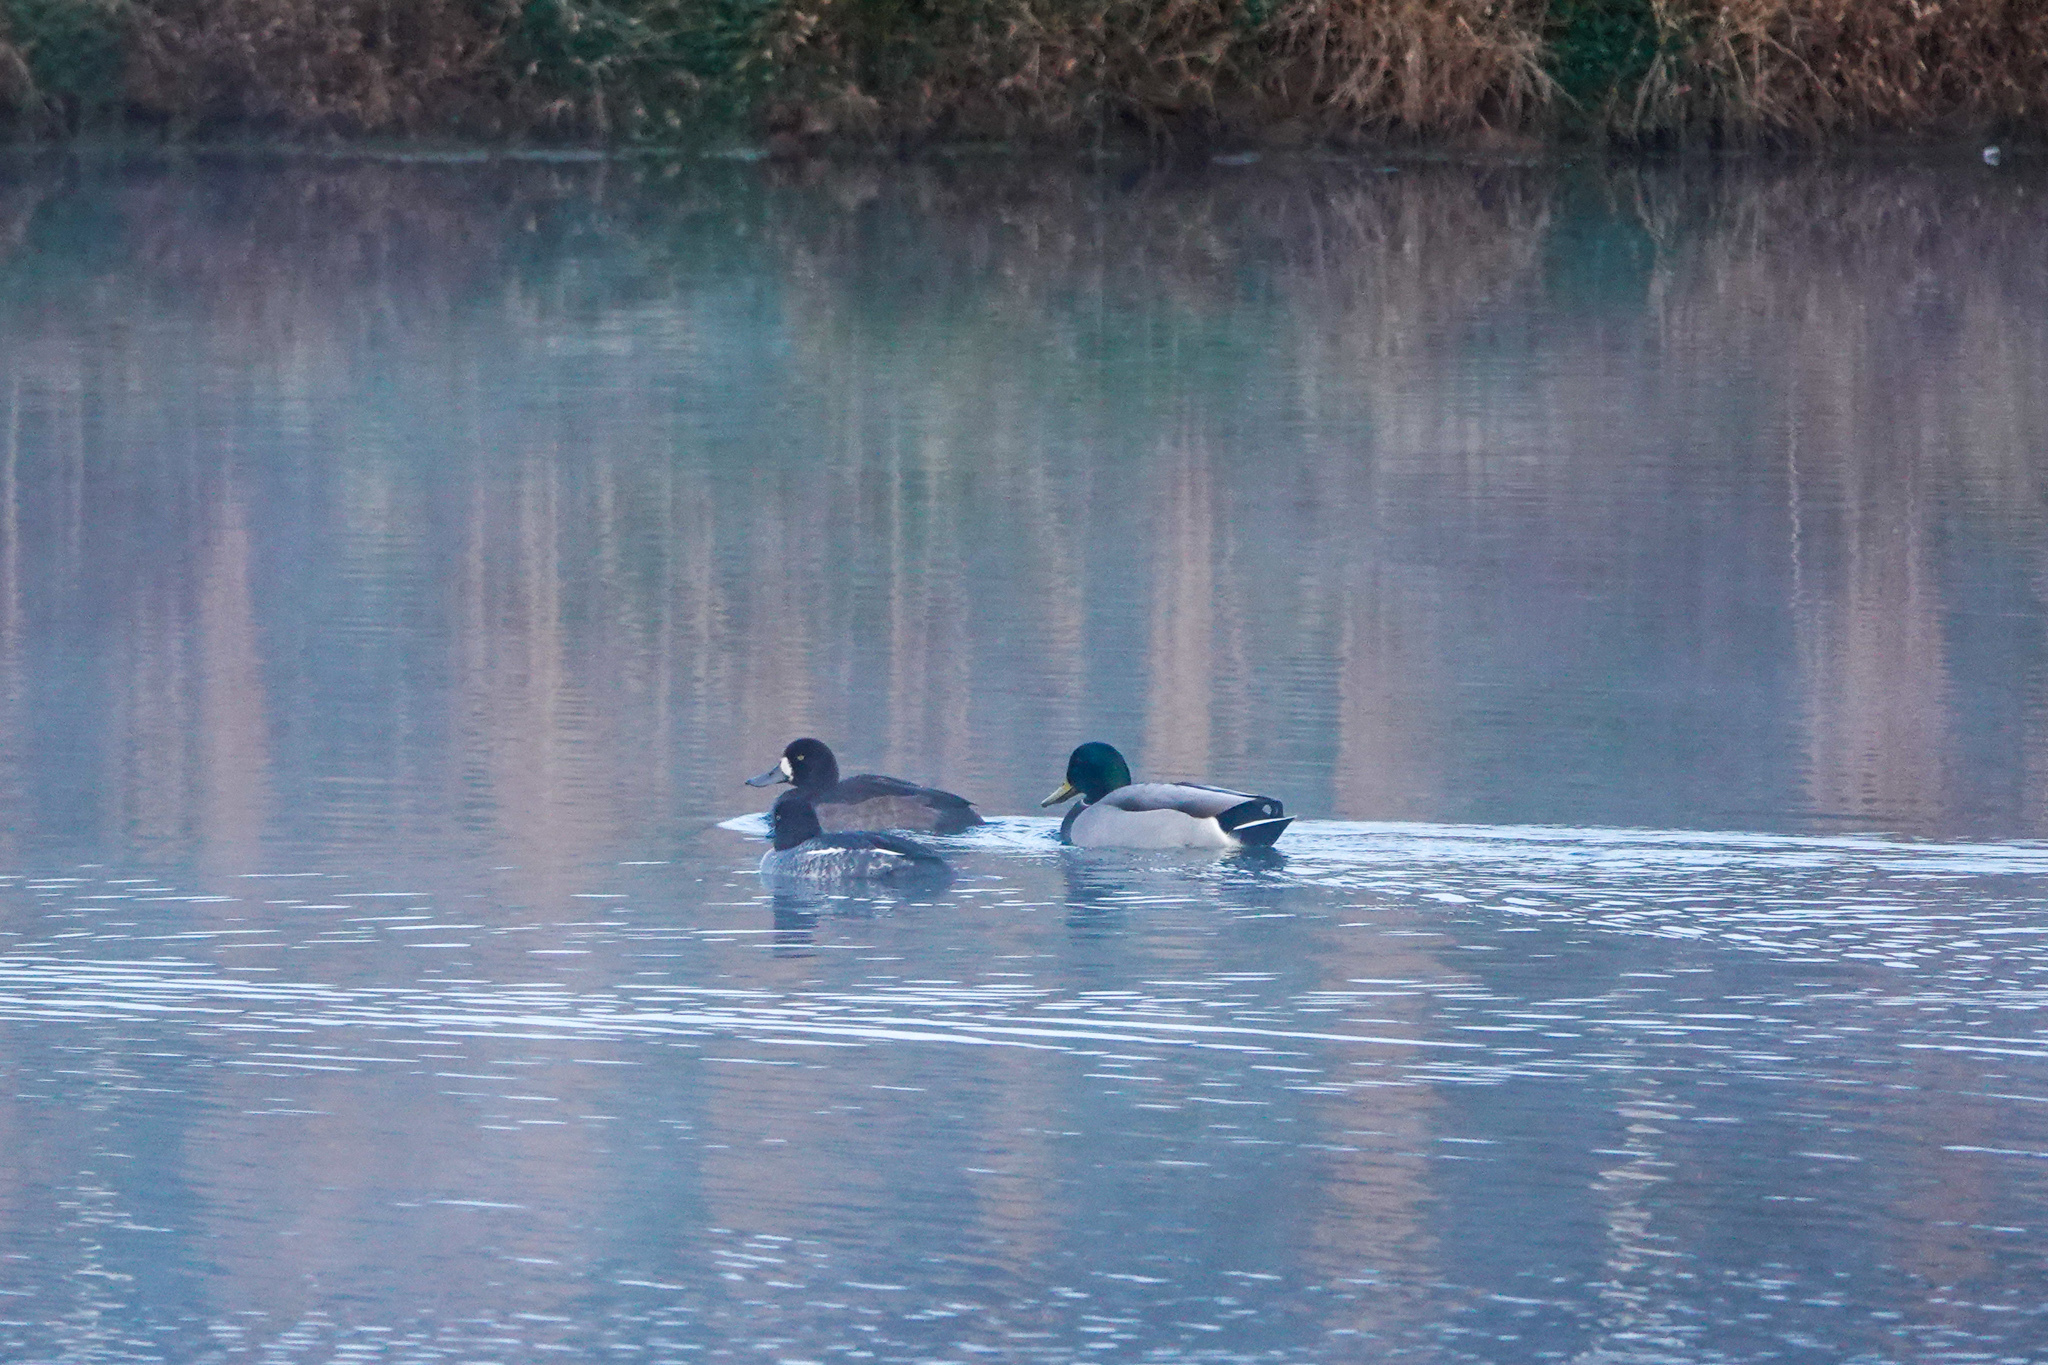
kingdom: Animalia
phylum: Chordata
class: Aves
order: Anseriformes
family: Anatidae
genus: Bucephala
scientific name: Bucephala clangula
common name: Common goldeneye
